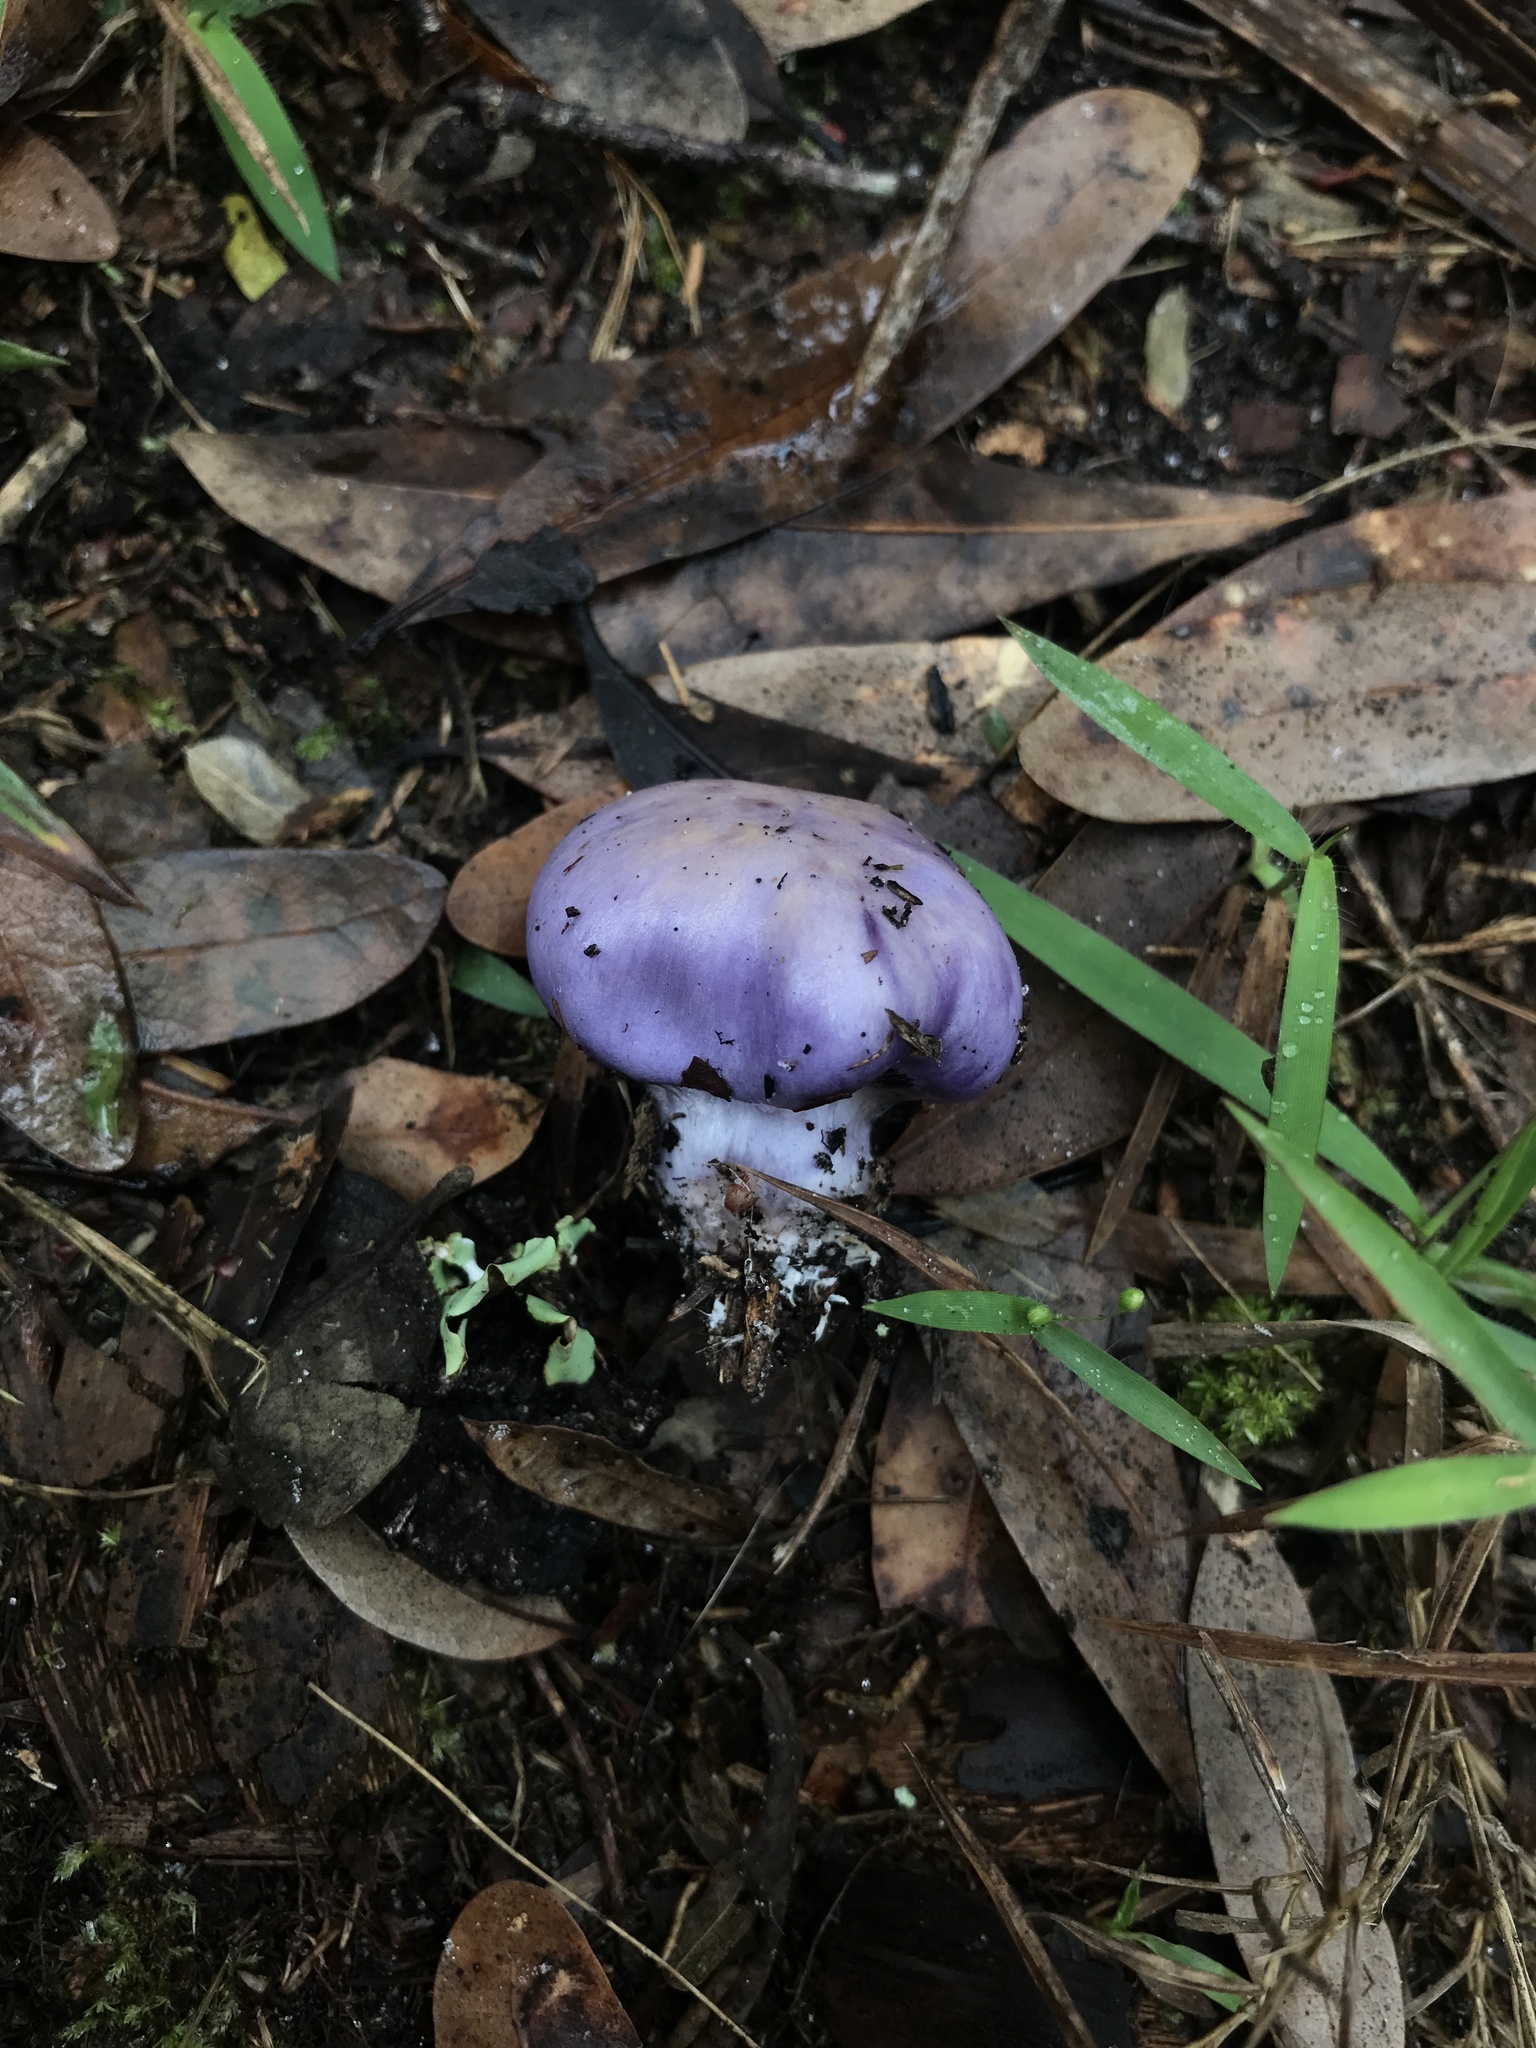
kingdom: Fungi
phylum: Basidiomycota
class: Agaricomycetes
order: Agaricales
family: Cortinariaceae
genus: Cortinarius
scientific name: Cortinarius iodes
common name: Viscid violet cort
